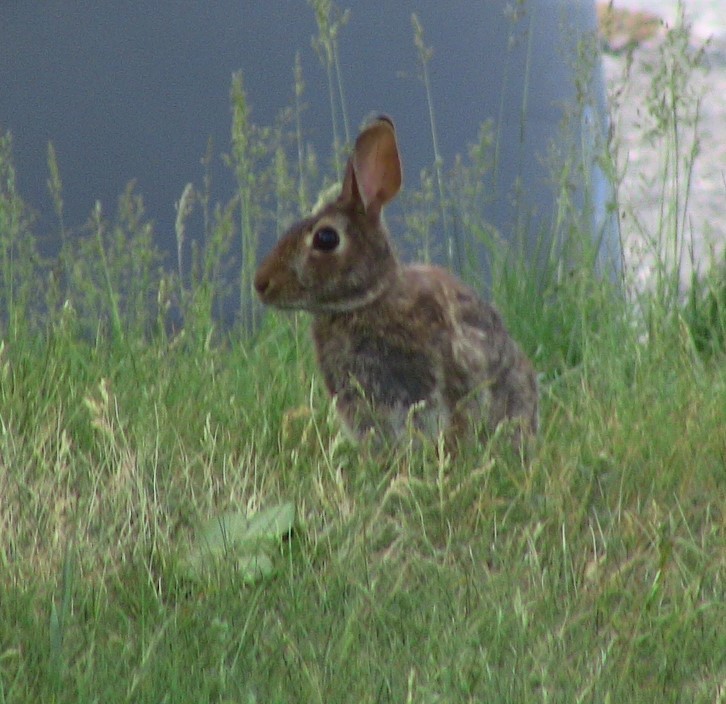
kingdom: Animalia
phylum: Chordata
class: Mammalia
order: Lagomorpha
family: Leporidae
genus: Sylvilagus
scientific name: Sylvilagus floridanus
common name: Eastern cottontail
